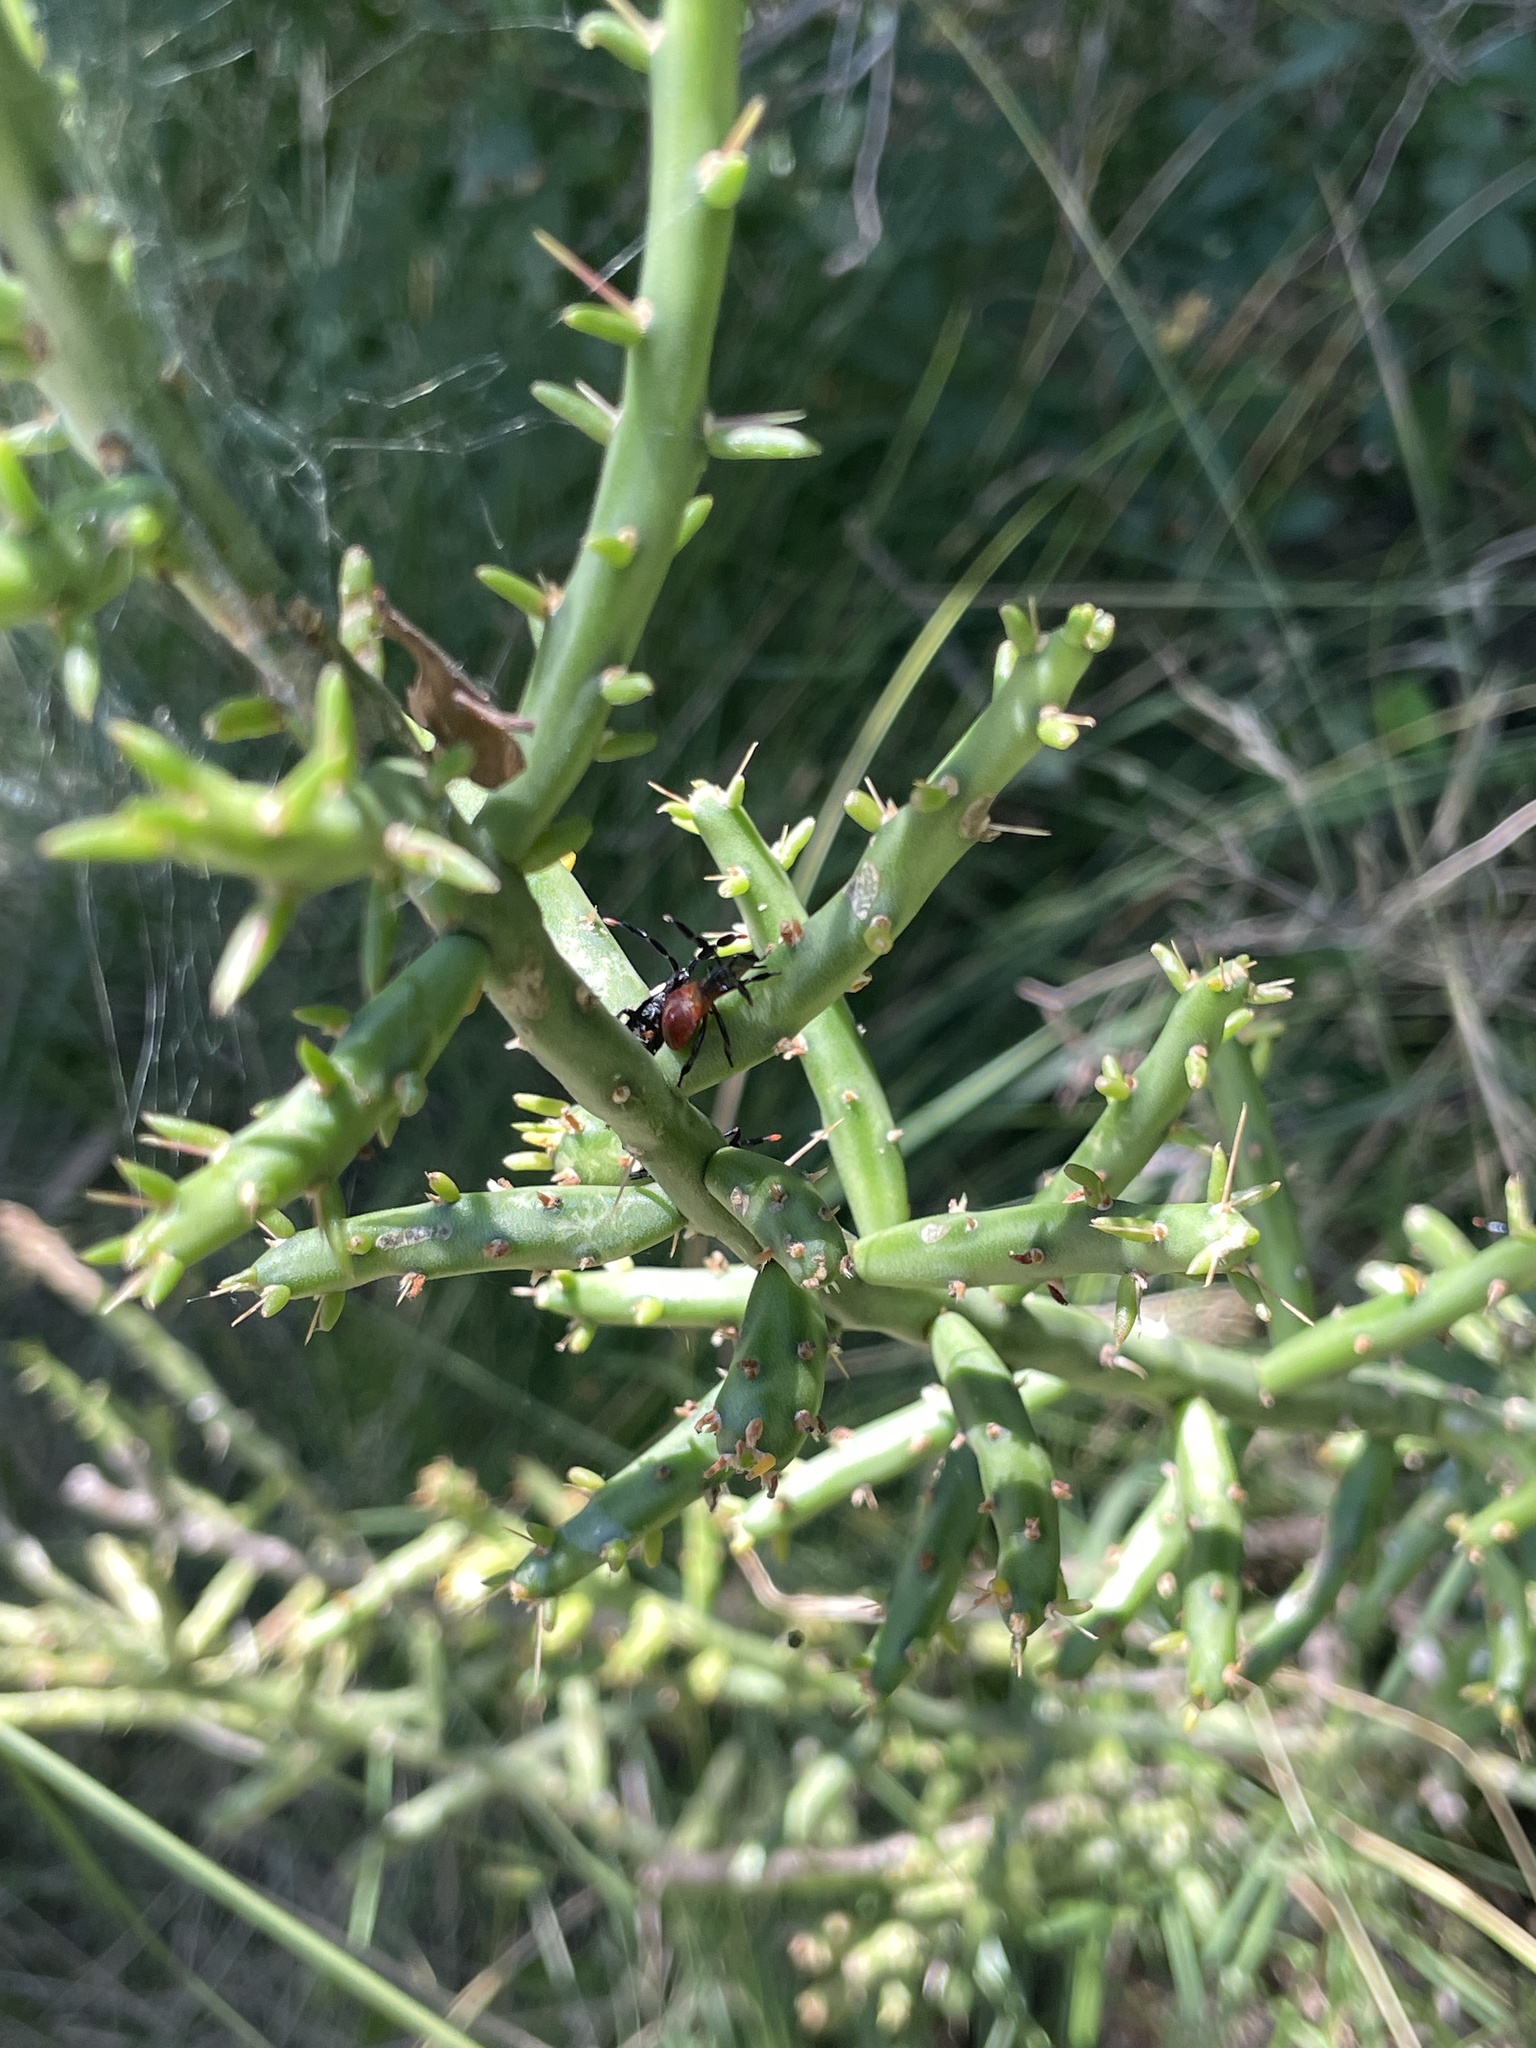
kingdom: Animalia
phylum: Arthropoda
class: Insecta
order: Hemiptera
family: Coreidae
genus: Chelinidea
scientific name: Chelinidea vittiger
